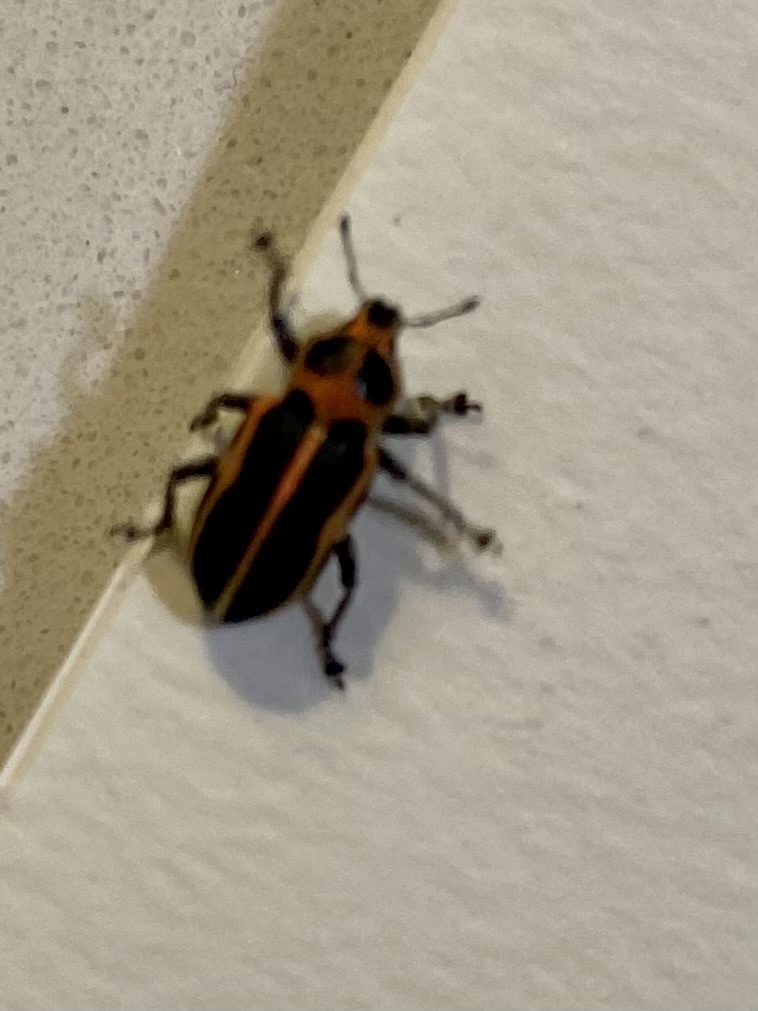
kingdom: Animalia
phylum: Arthropoda
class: Insecta
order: Coleoptera
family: Curculionidae
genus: Eudiagogus
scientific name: Eudiagogus pulcher
